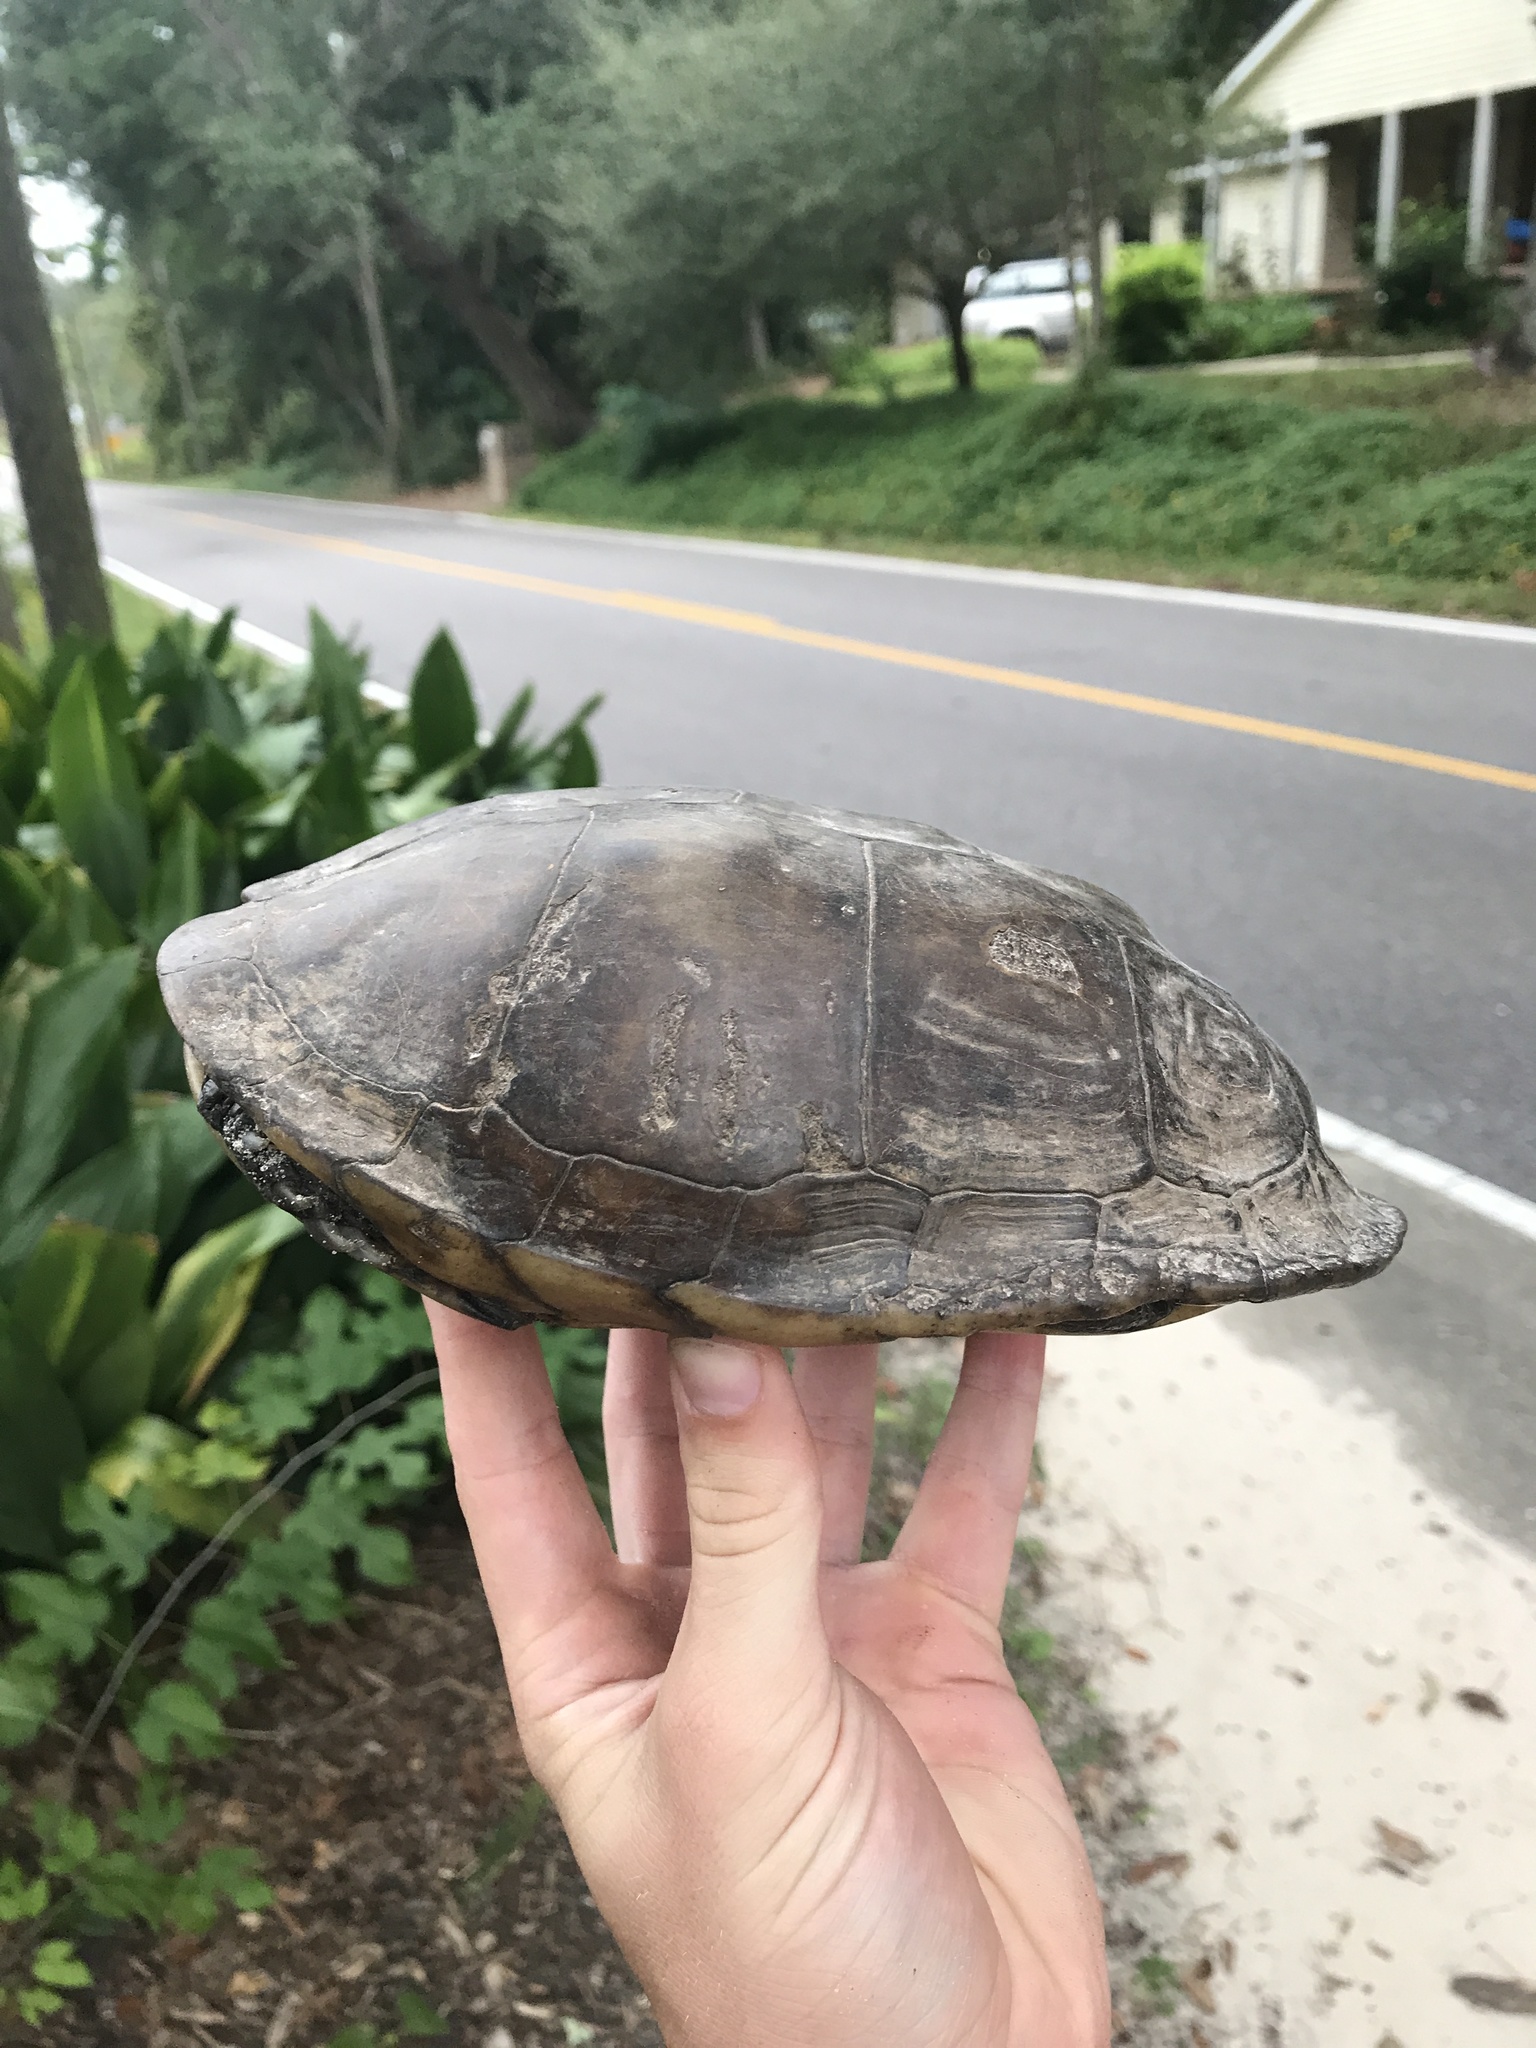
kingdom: Animalia
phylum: Chordata
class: Testudines
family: Emydidae
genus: Terrapene
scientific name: Terrapene carolina
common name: Common box turtle
